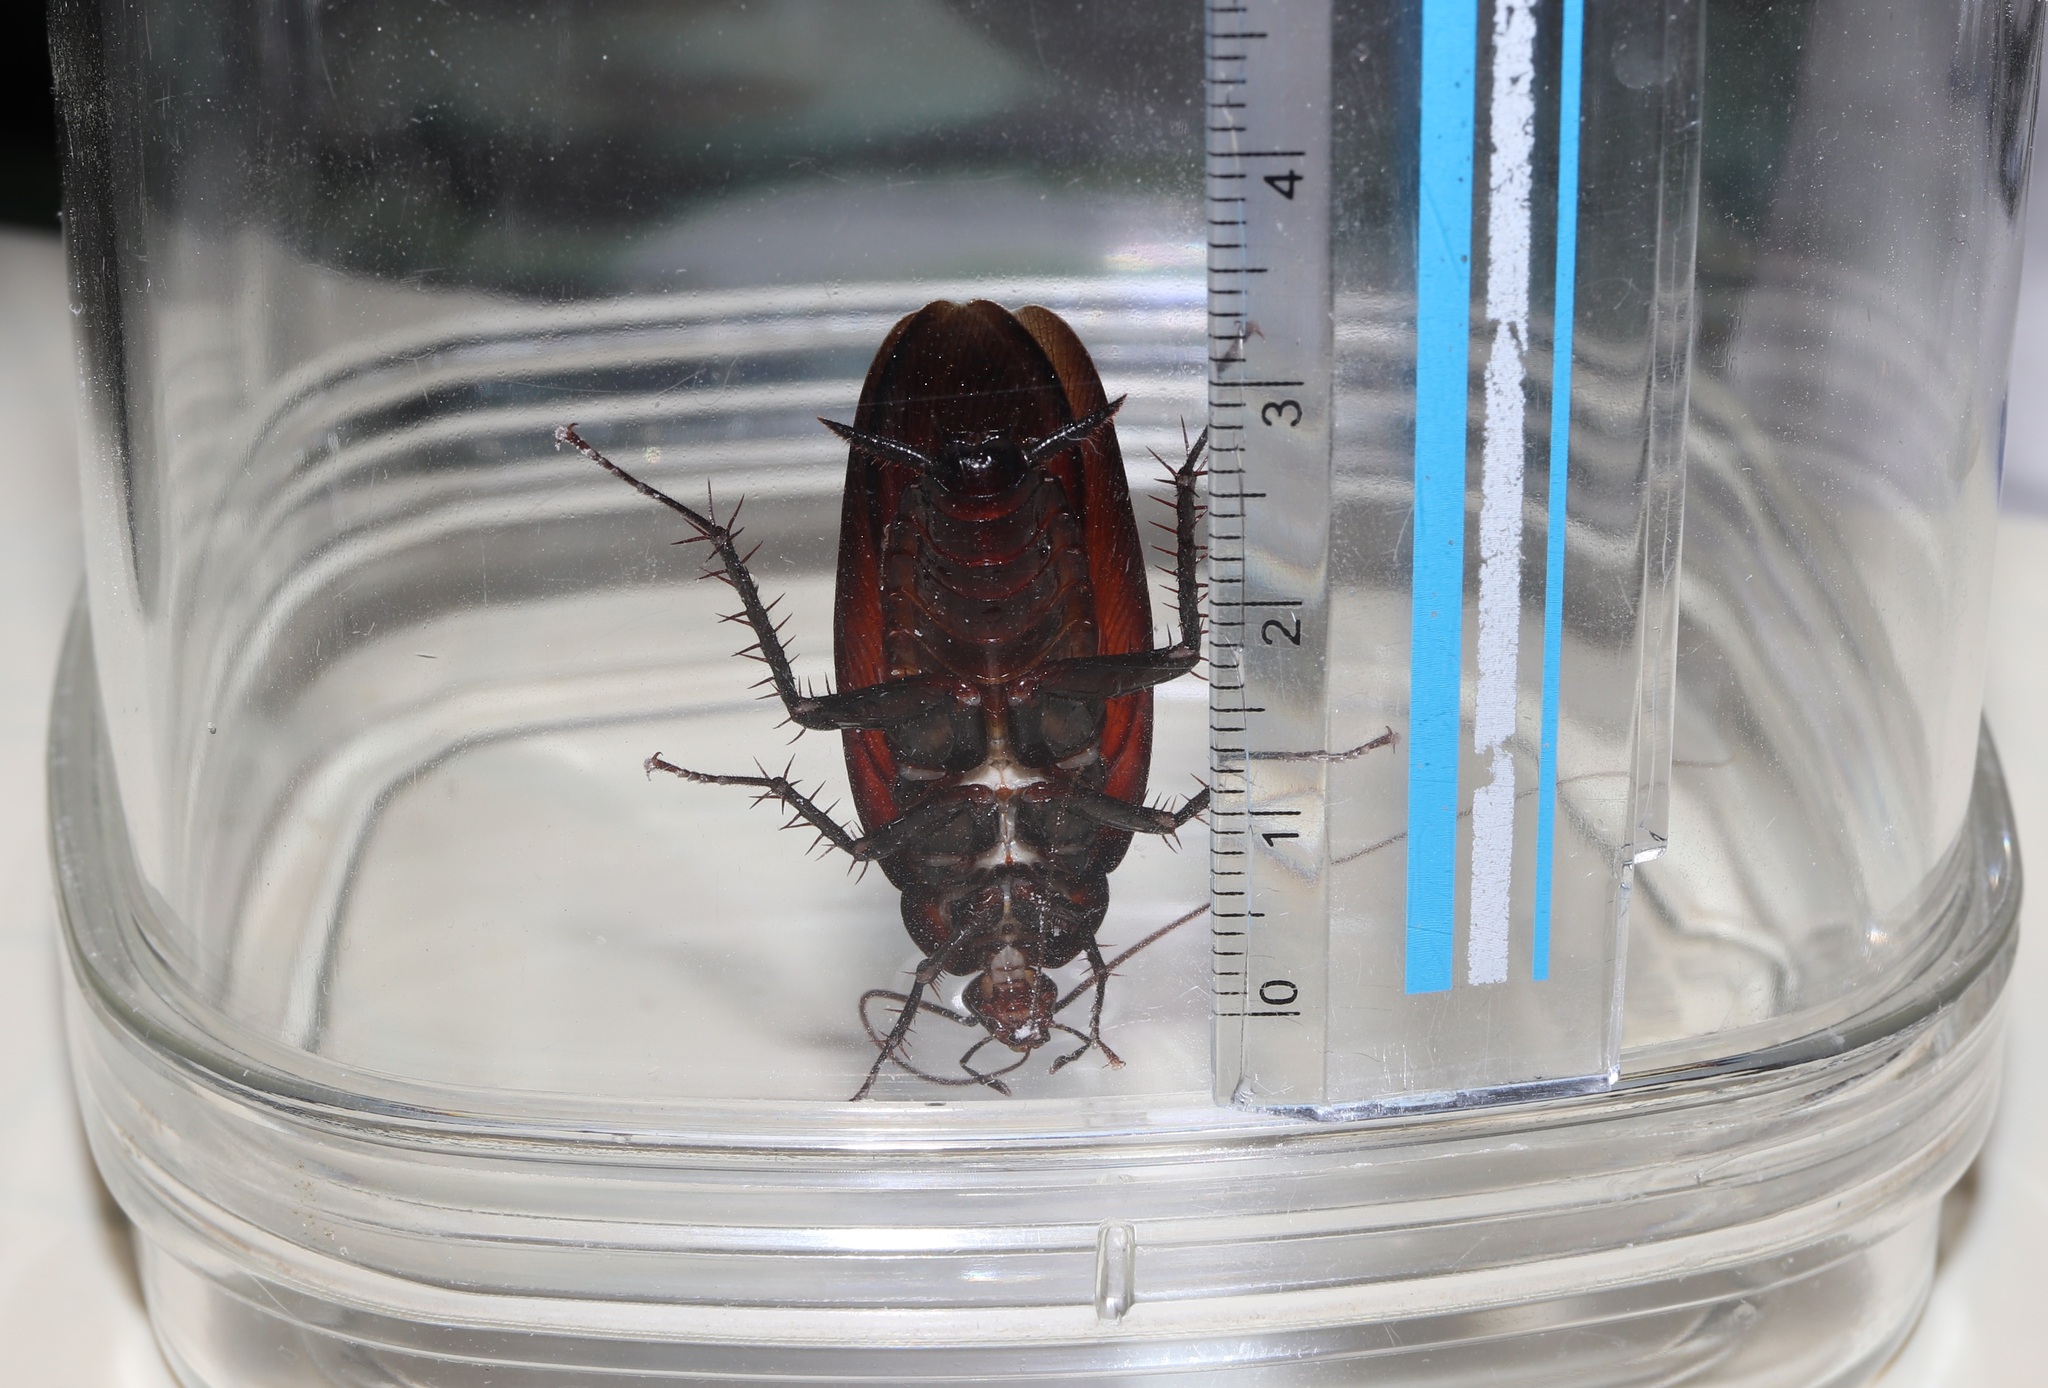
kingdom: Animalia
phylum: Arthropoda
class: Insecta
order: Blattodea
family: Blattidae
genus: Periplaneta
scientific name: Periplaneta fuliginosa
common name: Smokeybrown cockroad
